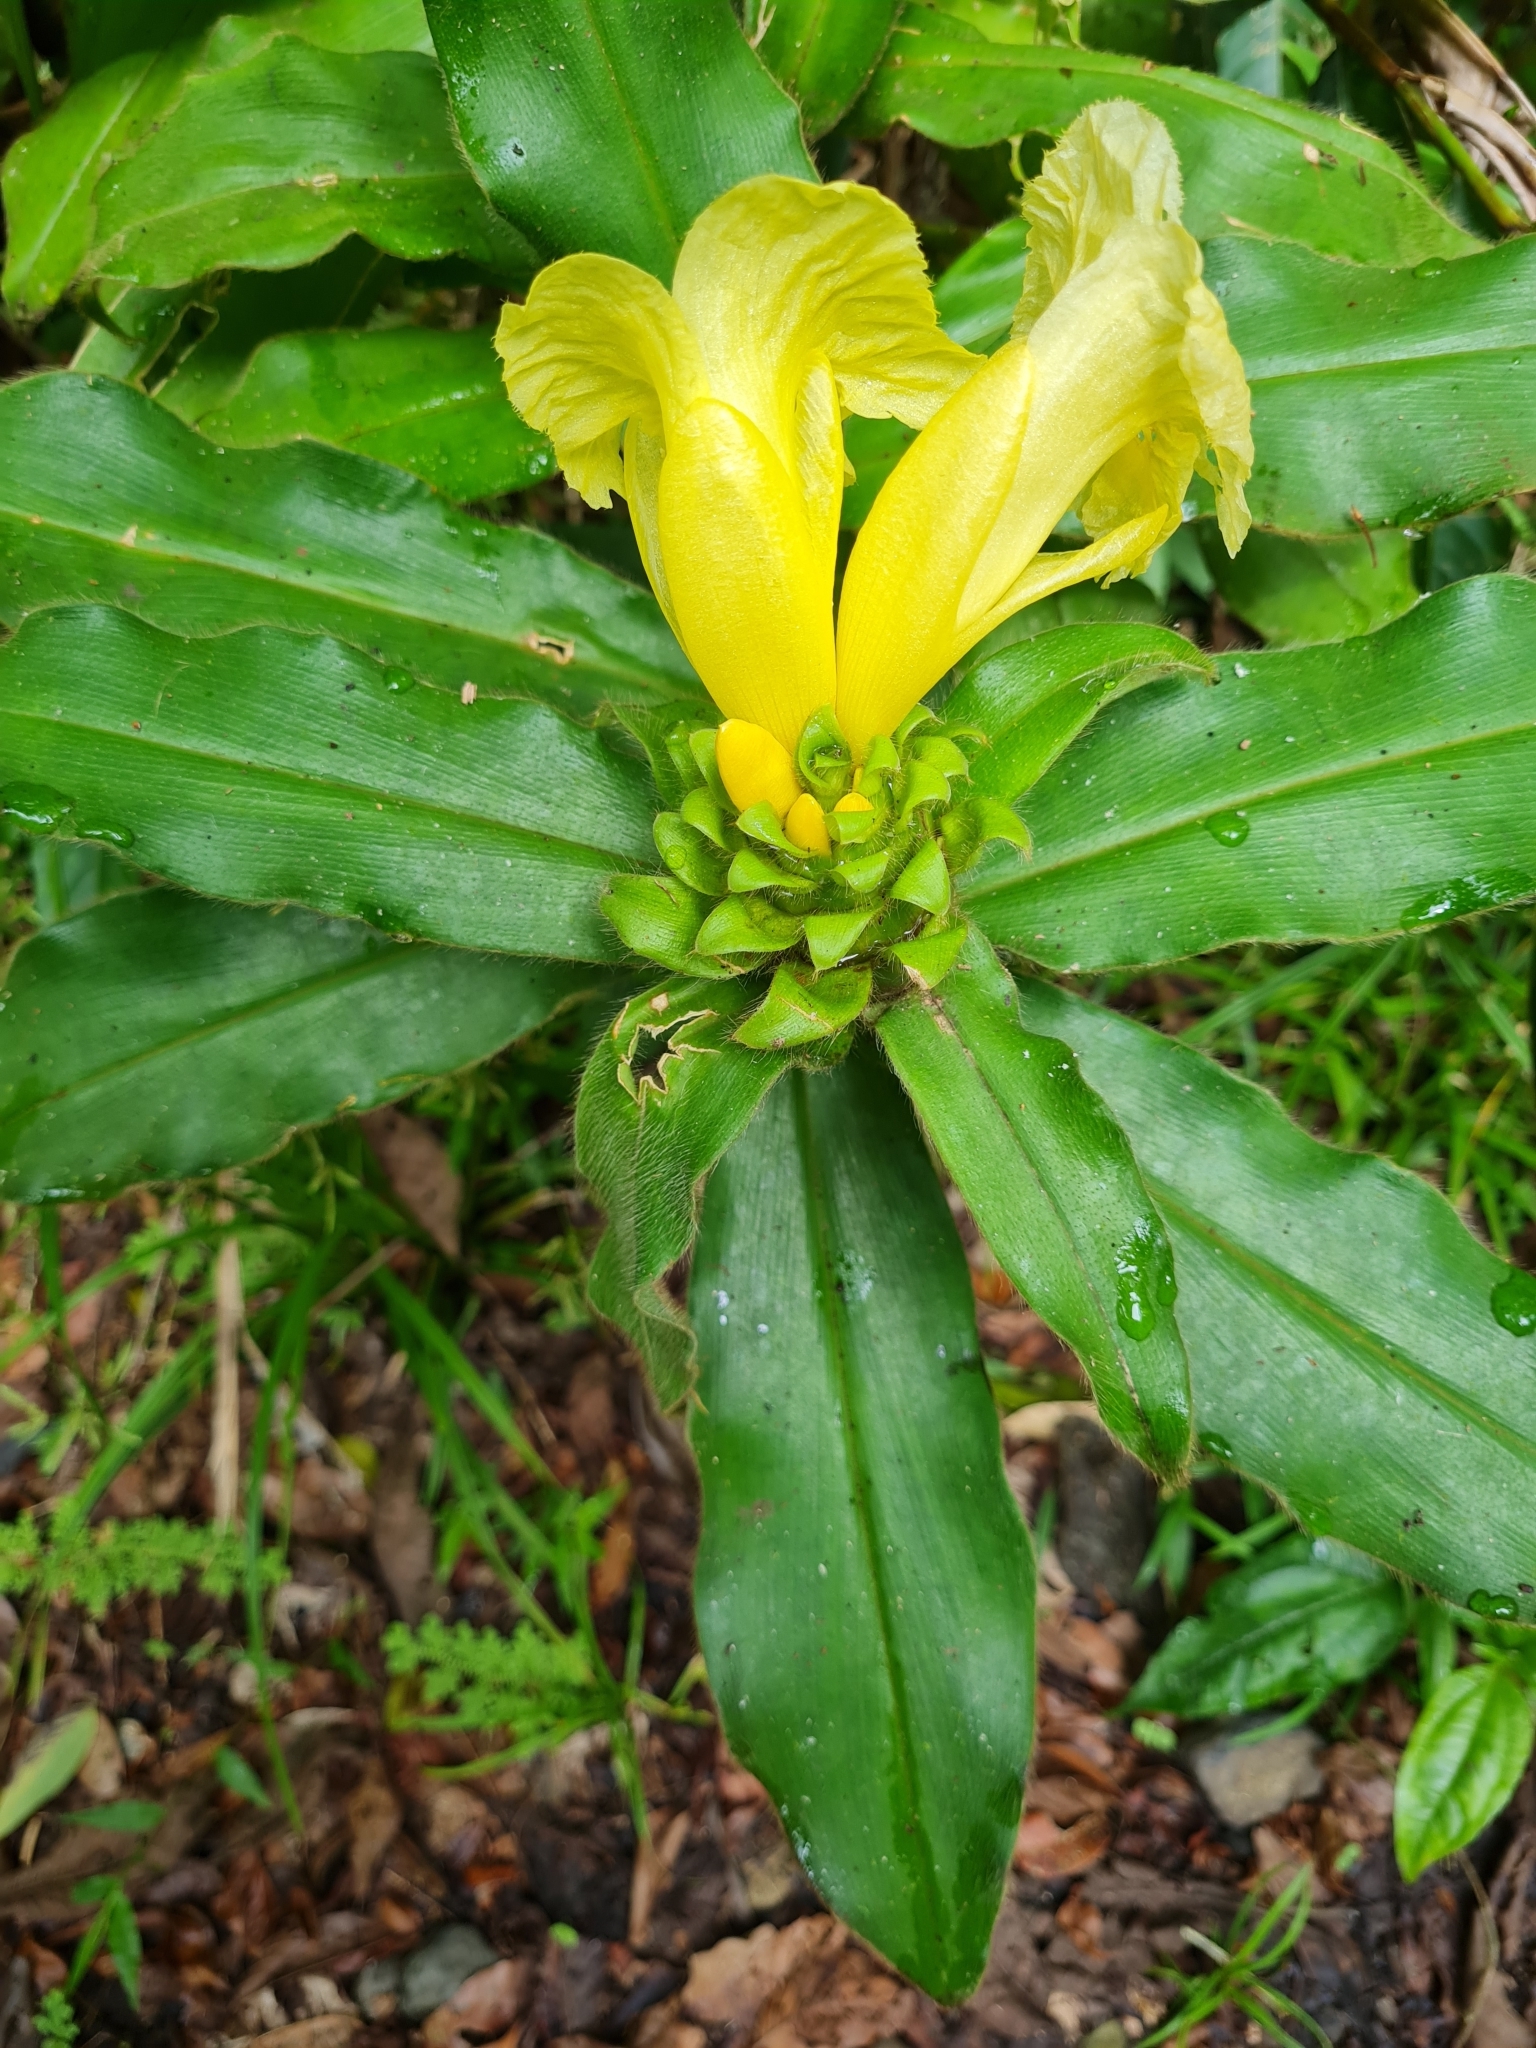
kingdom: Plantae
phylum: Tracheophyta
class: Liliopsida
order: Zingiberales
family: Costaceae
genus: Costus
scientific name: Costus villosissimus
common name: Spiral flag
